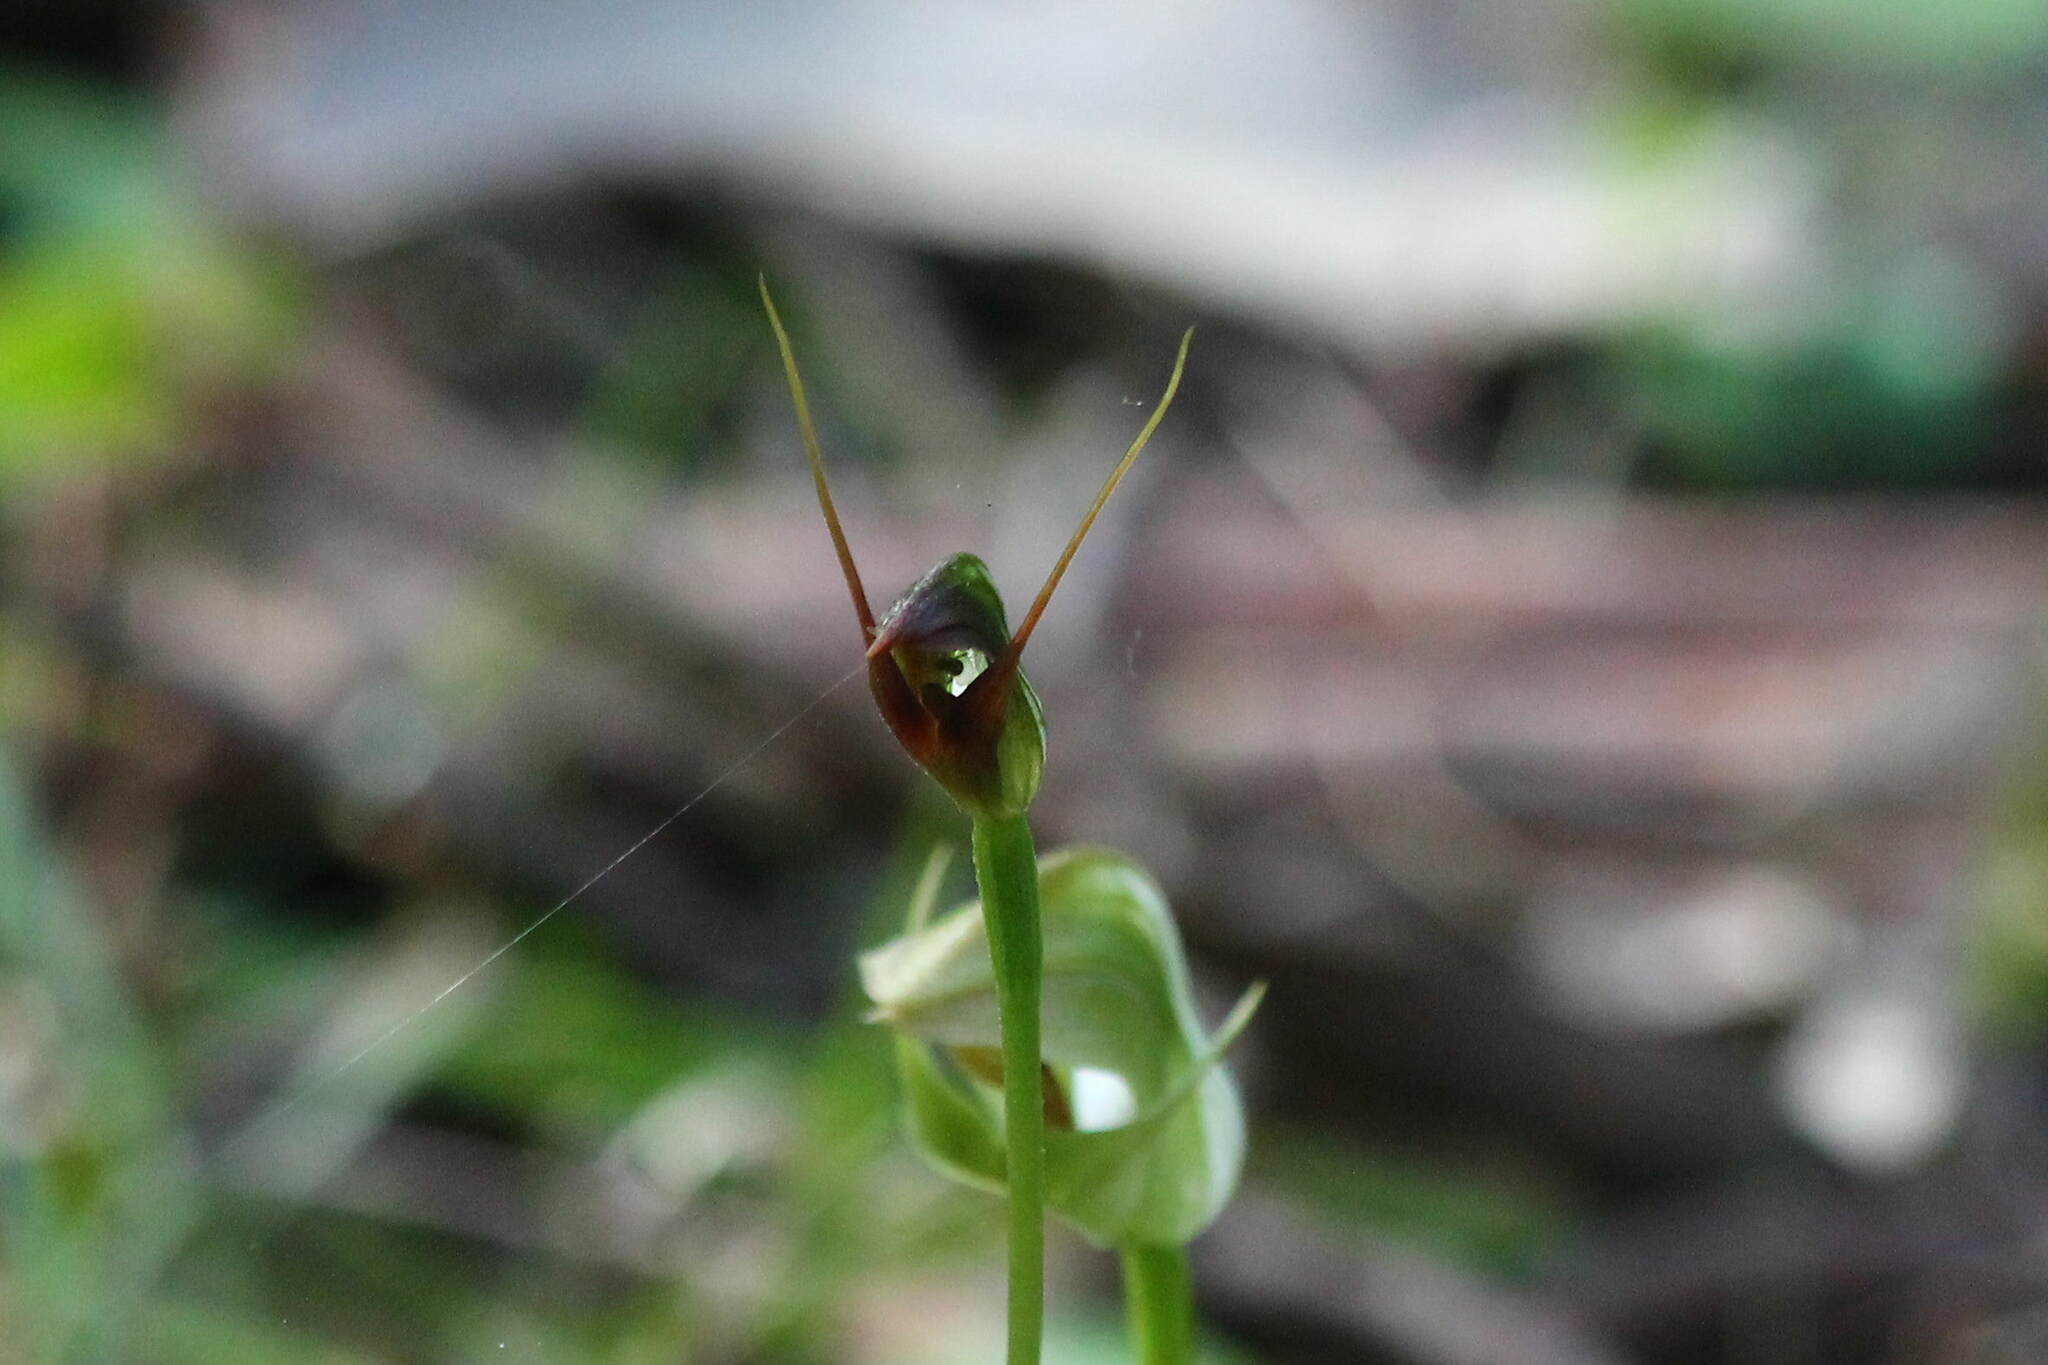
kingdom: Plantae
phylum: Tracheophyta
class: Liliopsida
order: Asparagales
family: Orchidaceae
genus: Pterostylis
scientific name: Pterostylis oblonga
